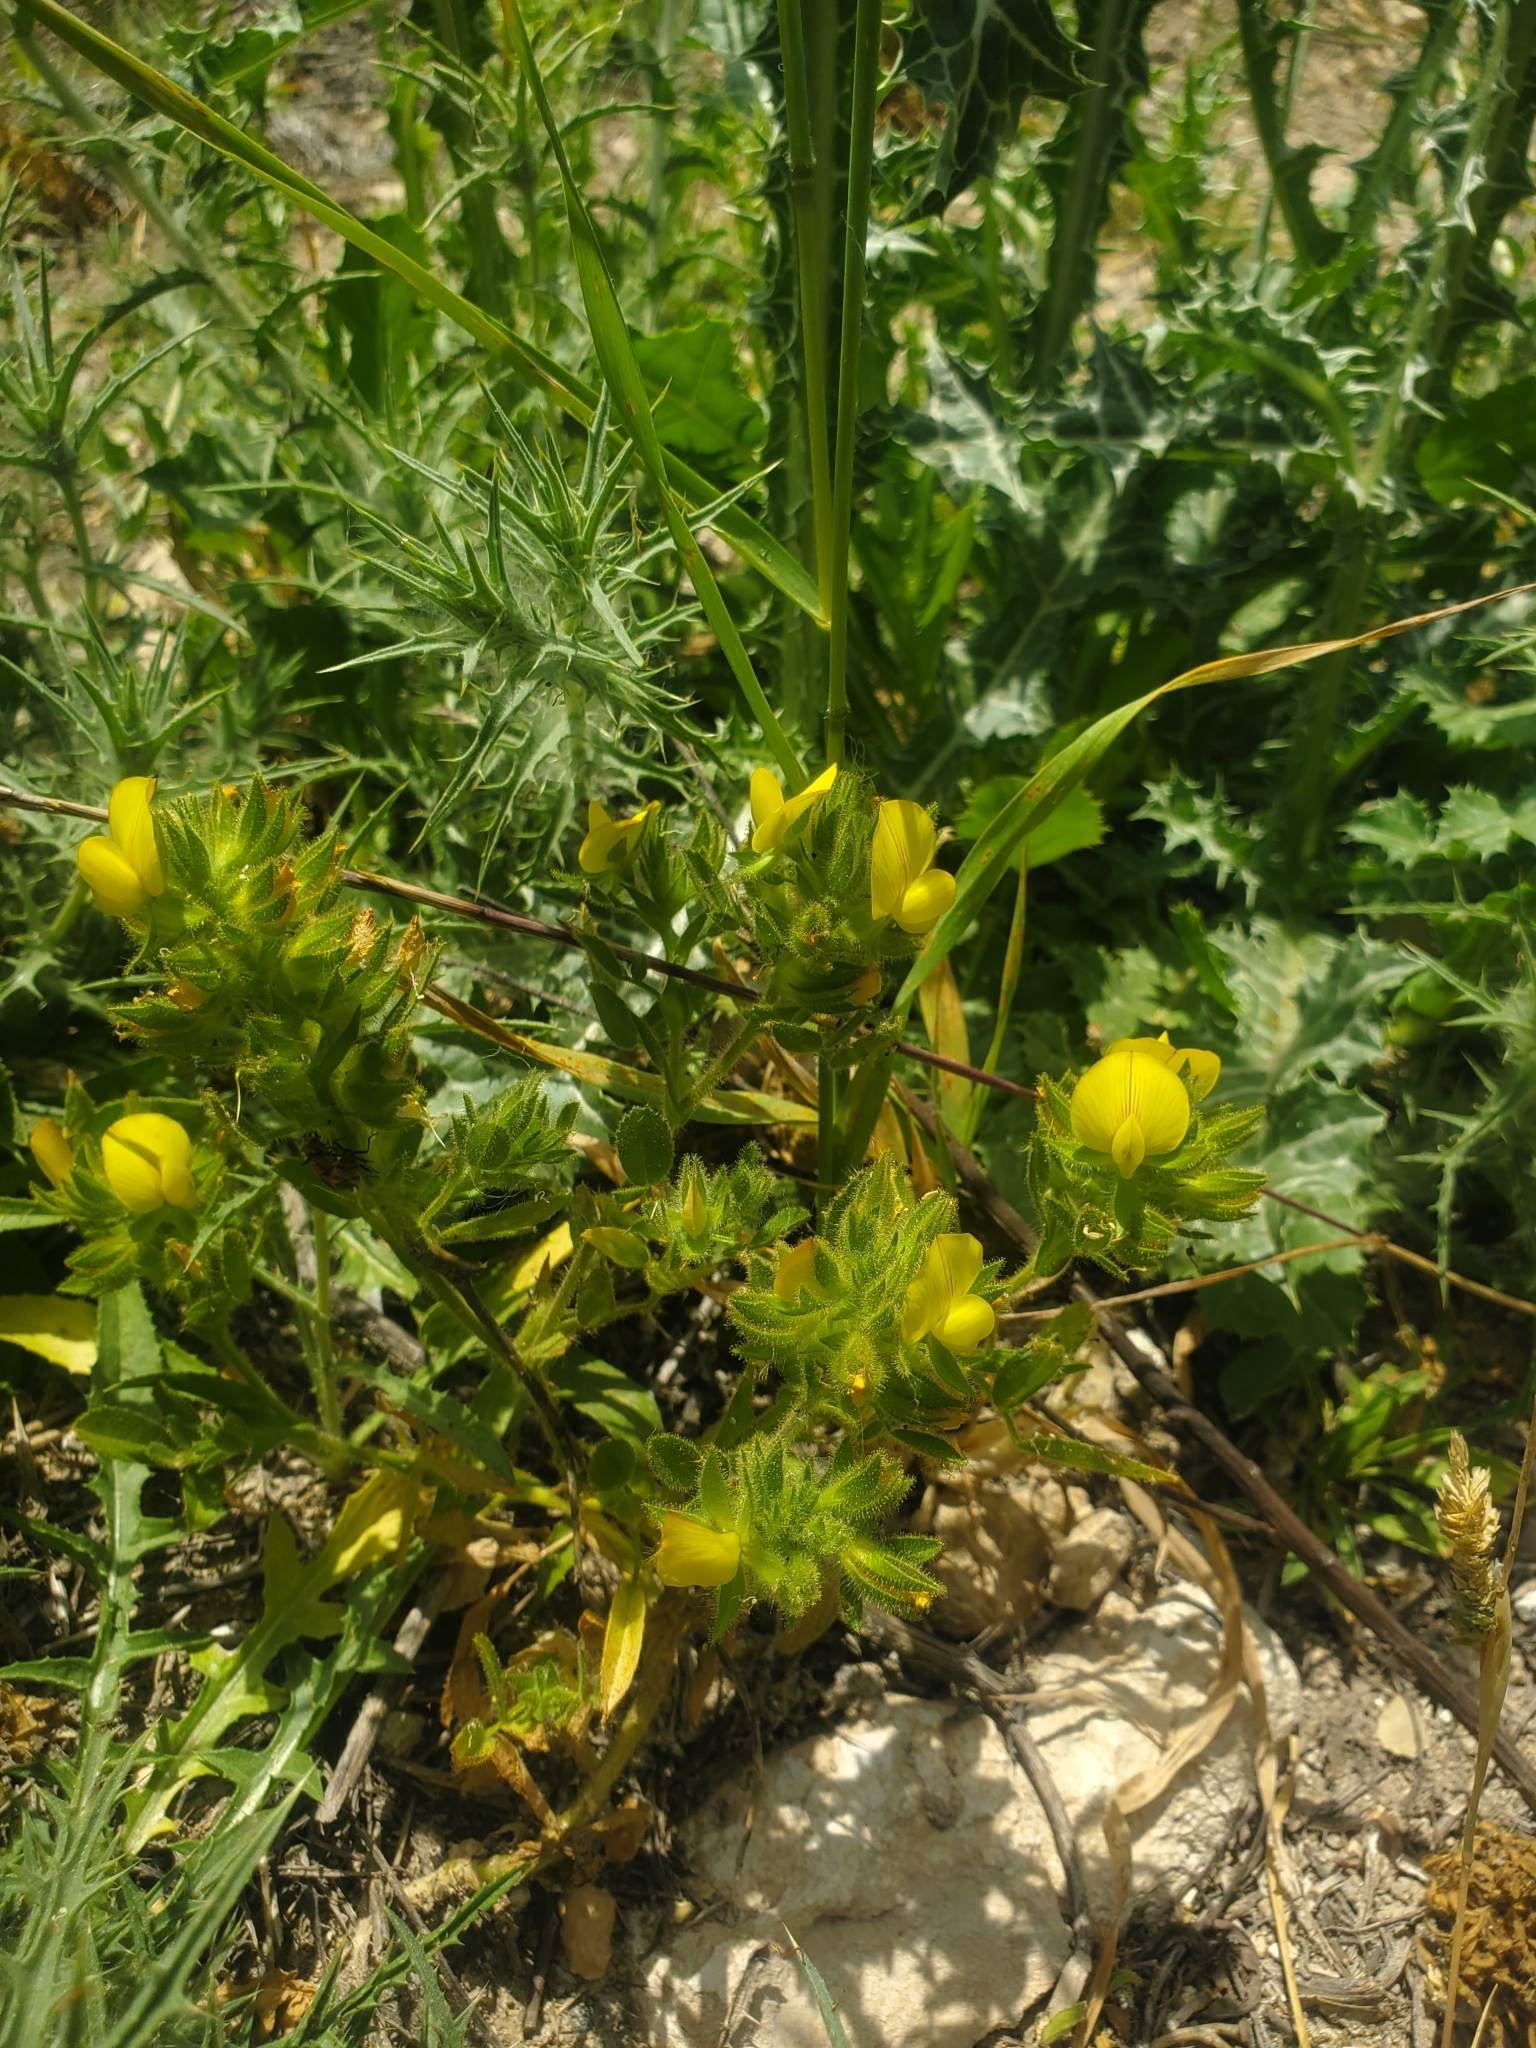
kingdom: Plantae
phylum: Tracheophyta
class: Magnoliopsida
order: Fabales
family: Fabaceae
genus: Ononis
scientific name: Ononis pubescens
